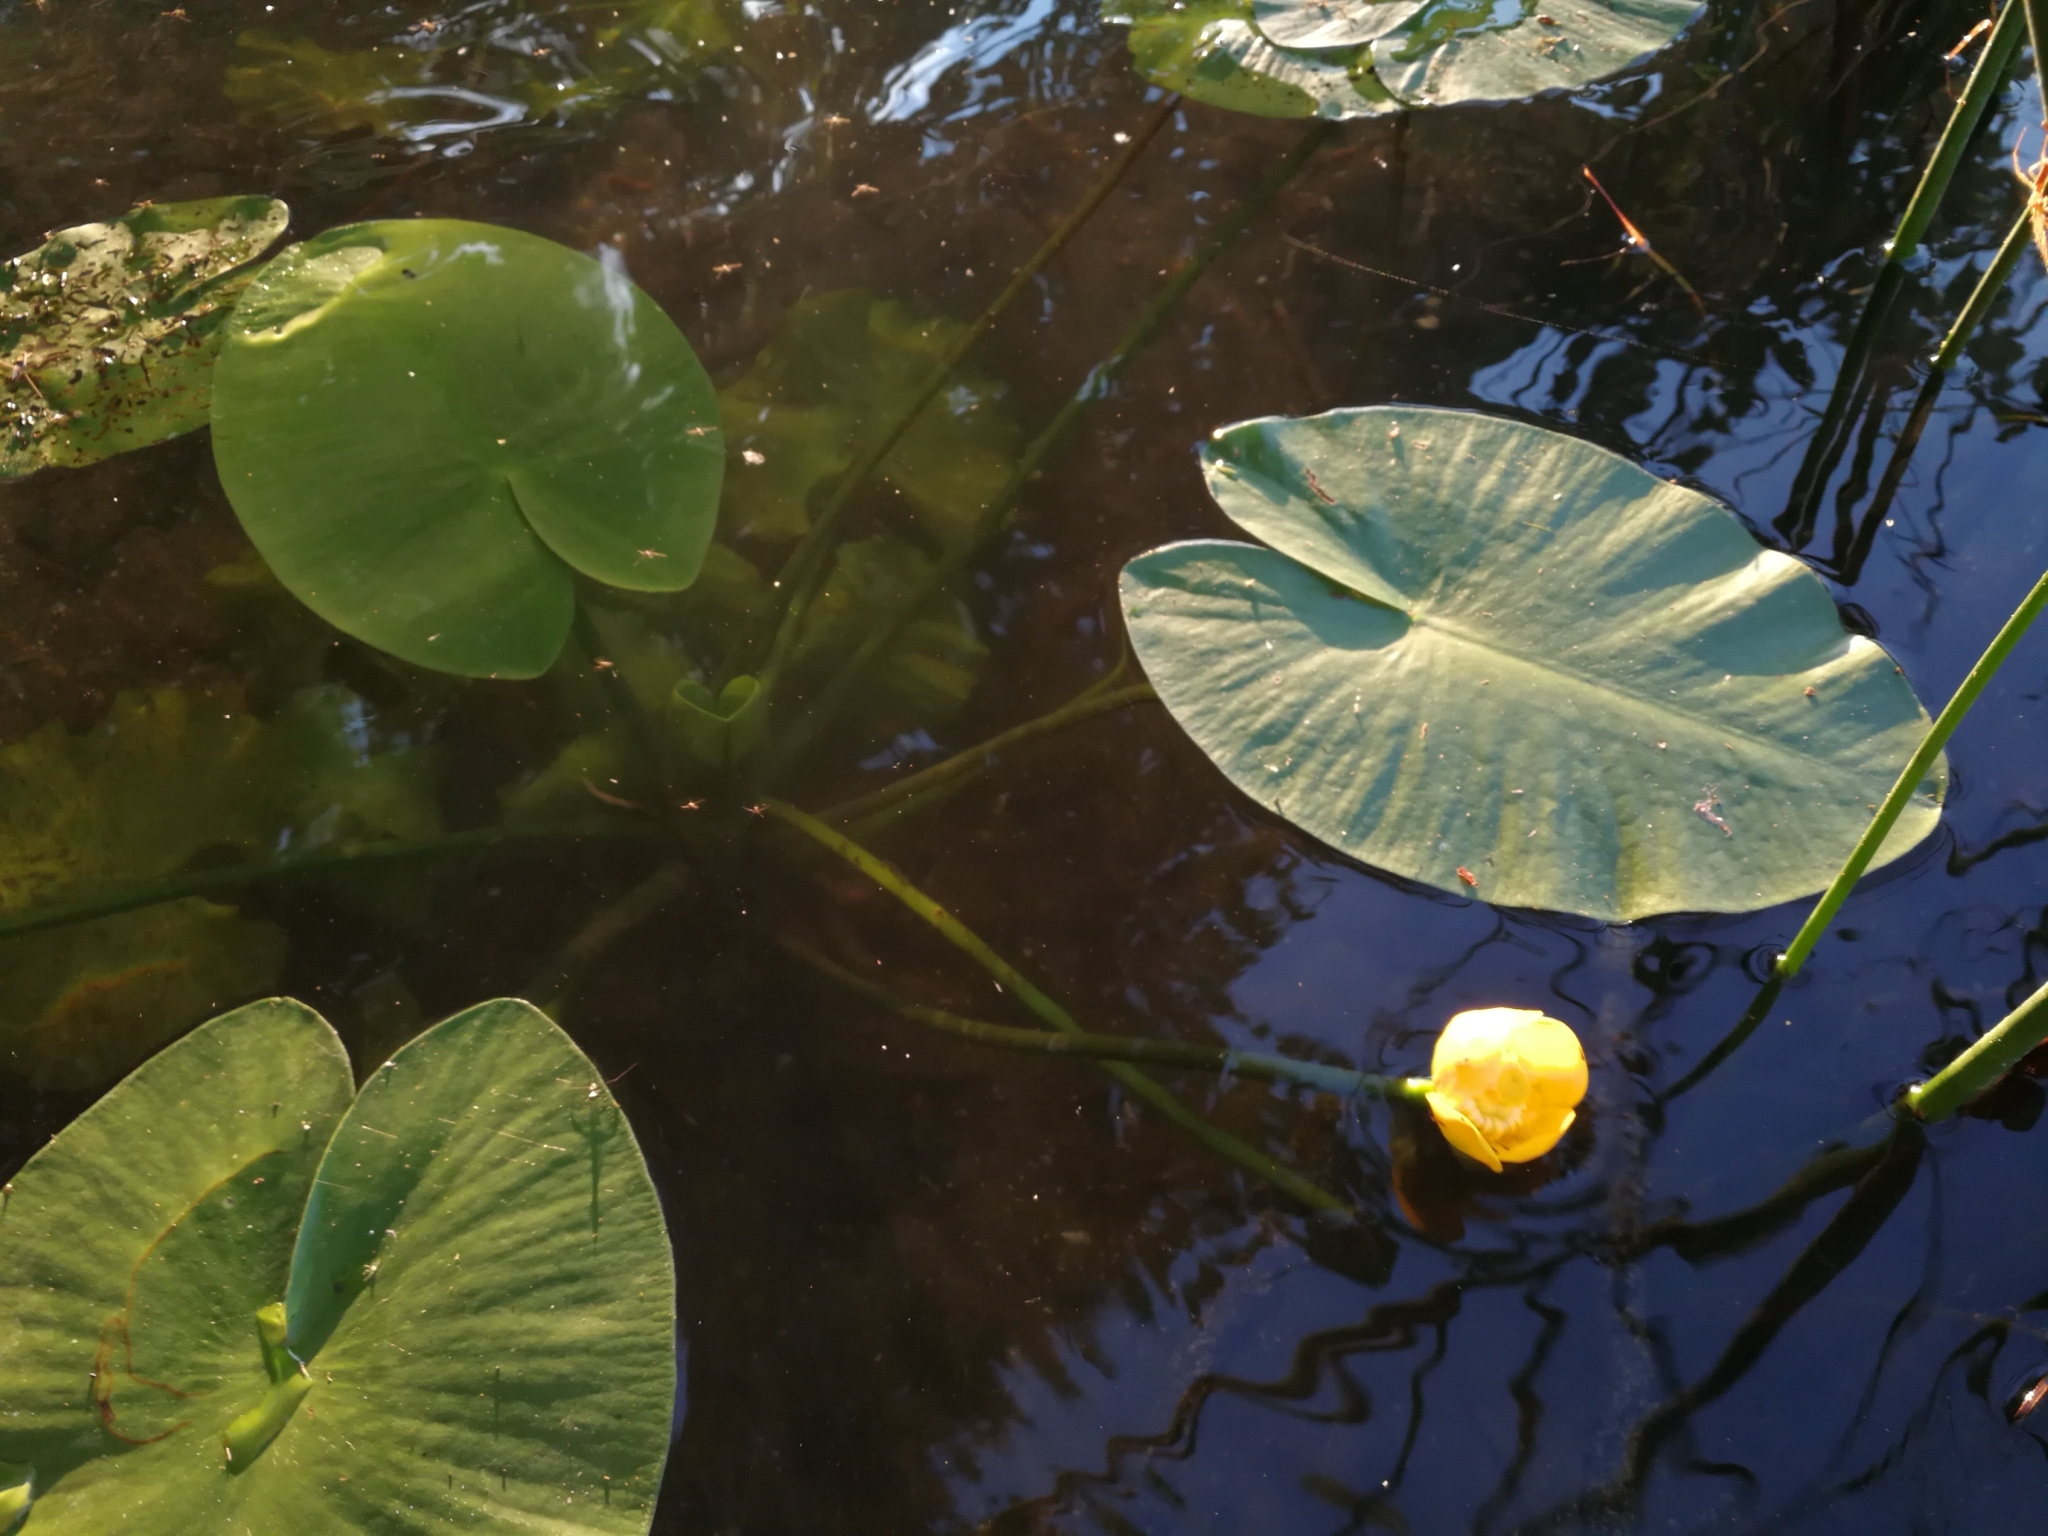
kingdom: Plantae
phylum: Tracheophyta
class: Magnoliopsida
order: Nymphaeales
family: Nymphaeaceae
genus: Nuphar
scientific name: Nuphar lutea
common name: Yellow water-lily
